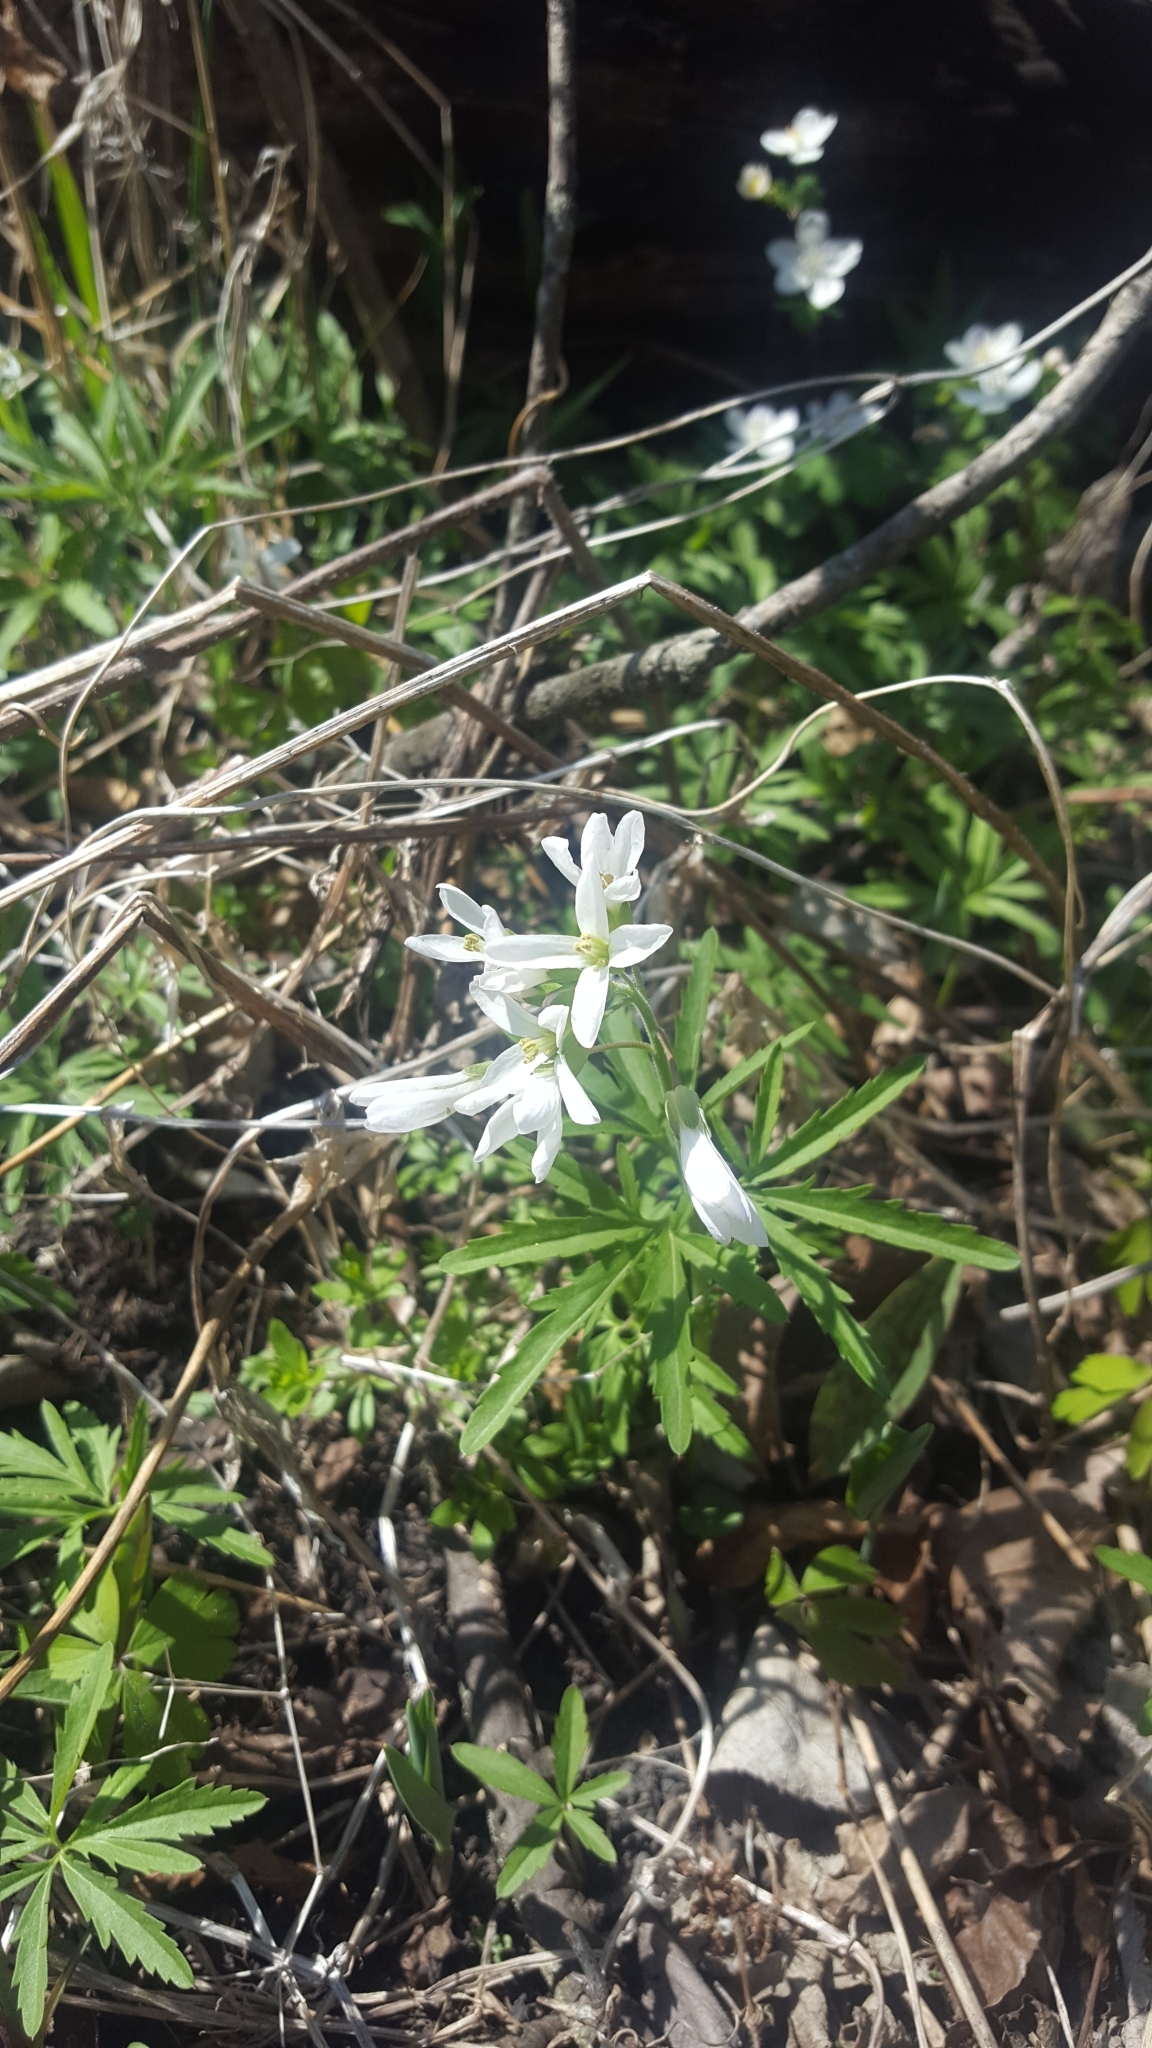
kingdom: Plantae
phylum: Tracheophyta
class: Magnoliopsida
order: Brassicales
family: Brassicaceae
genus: Cardamine
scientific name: Cardamine concatenata
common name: Cut-leaf toothcup
